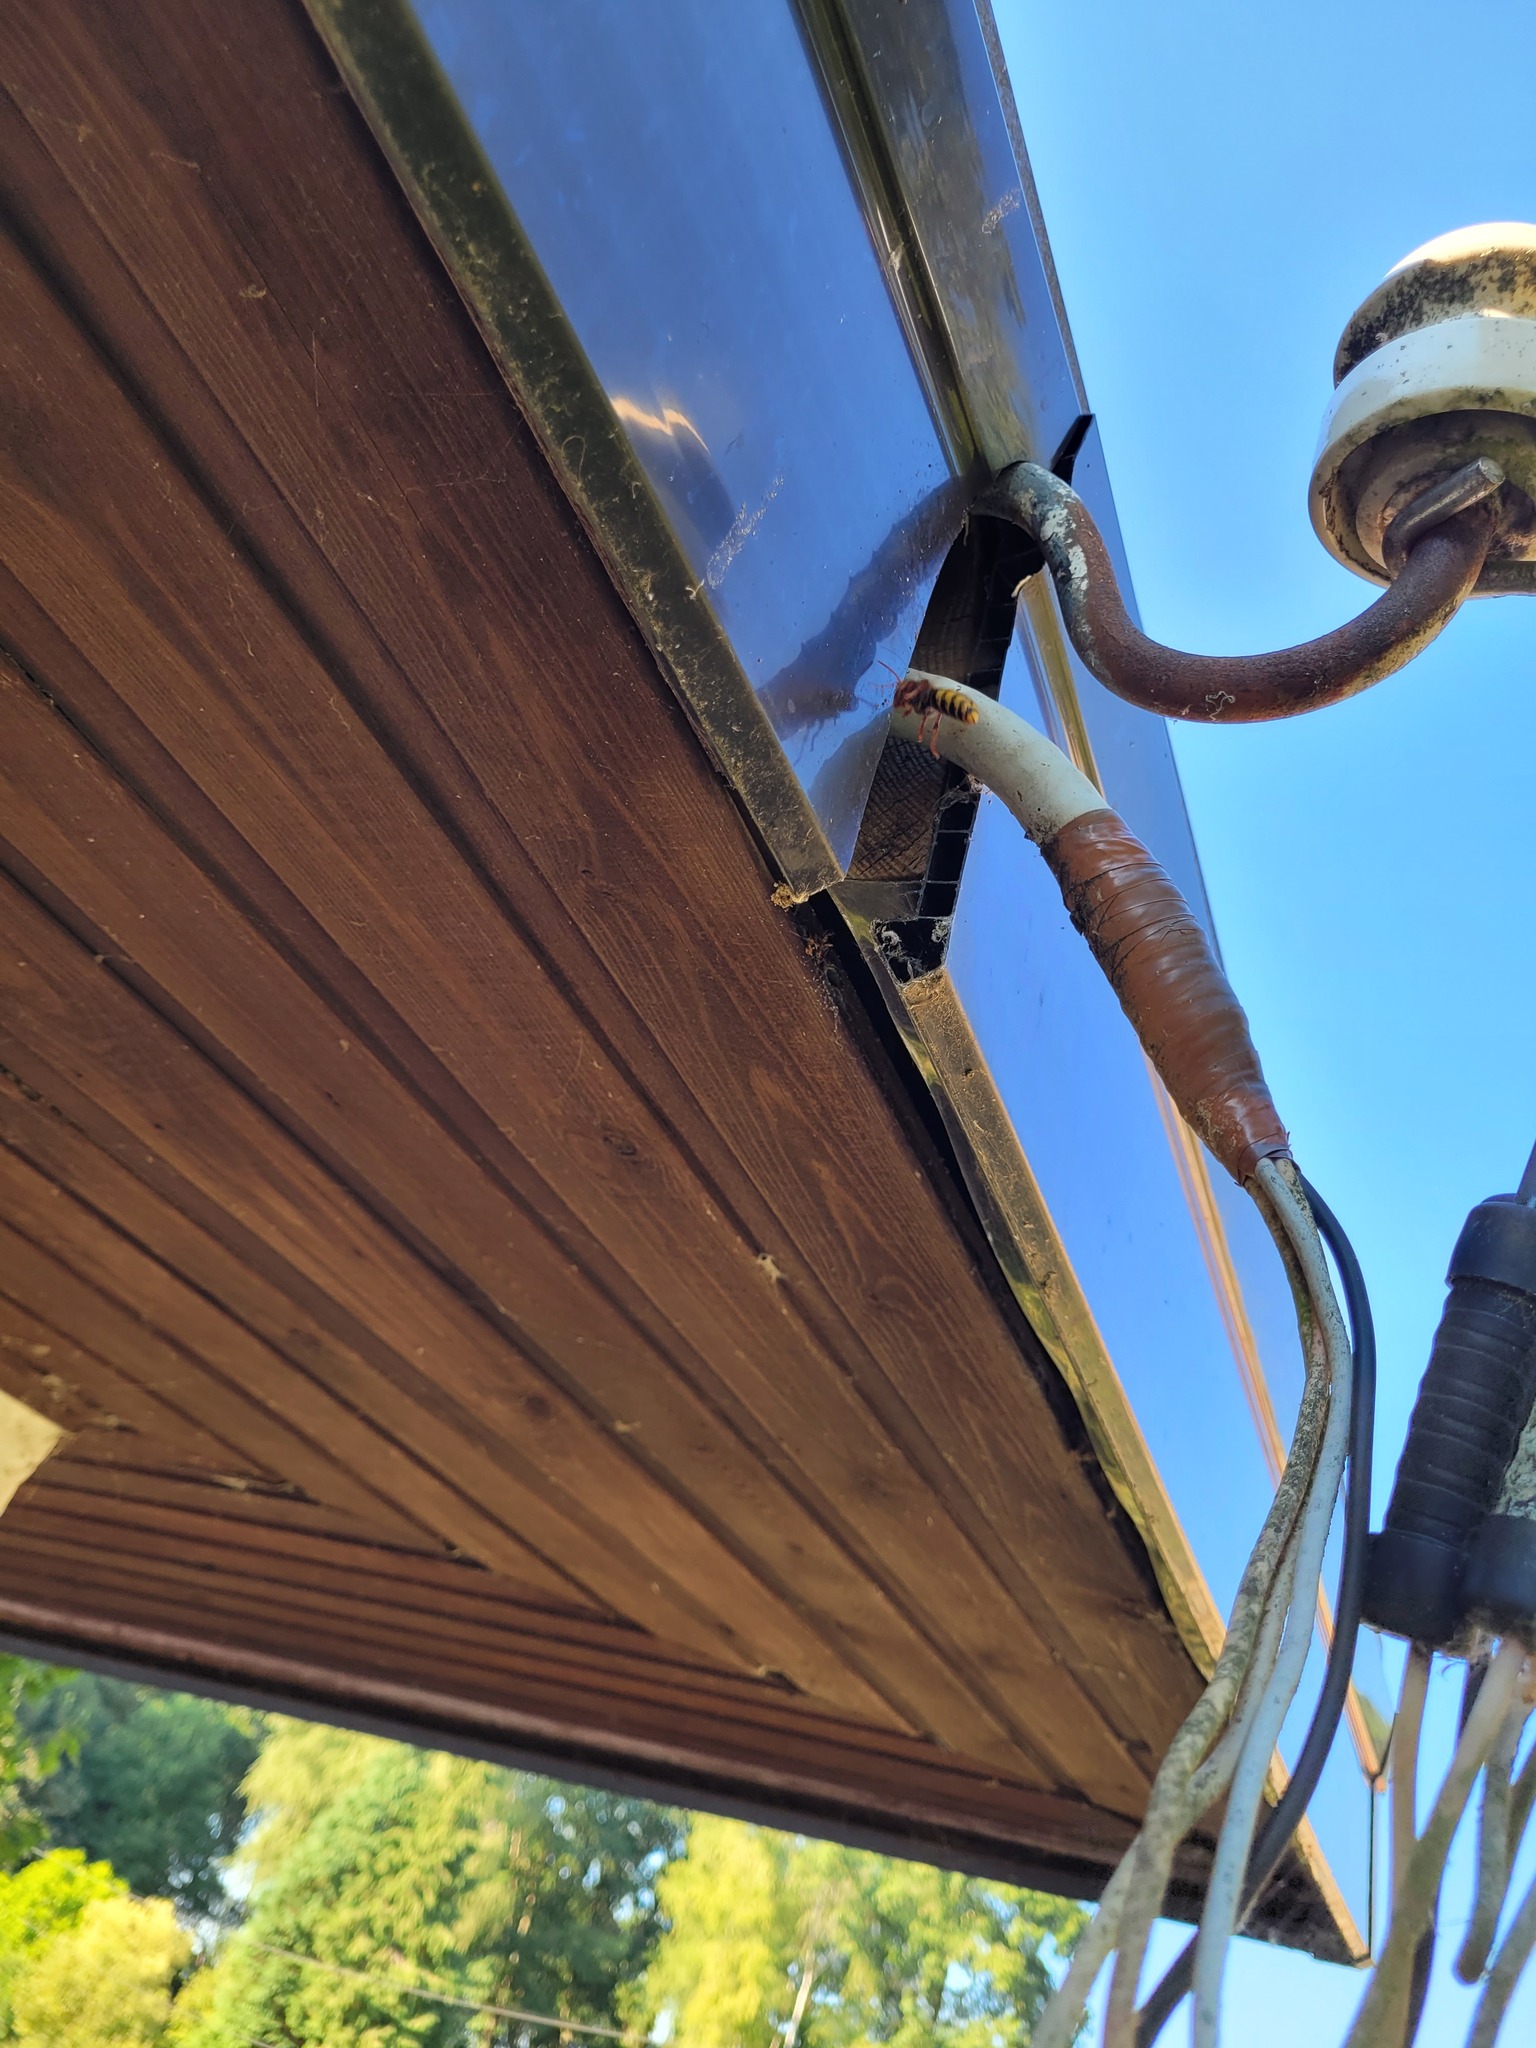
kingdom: Animalia
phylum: Arthropoda
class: Insecta
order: Hymenoptera
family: Vespidae
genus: Vespa
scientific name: Vespa crabro
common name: Hornet
